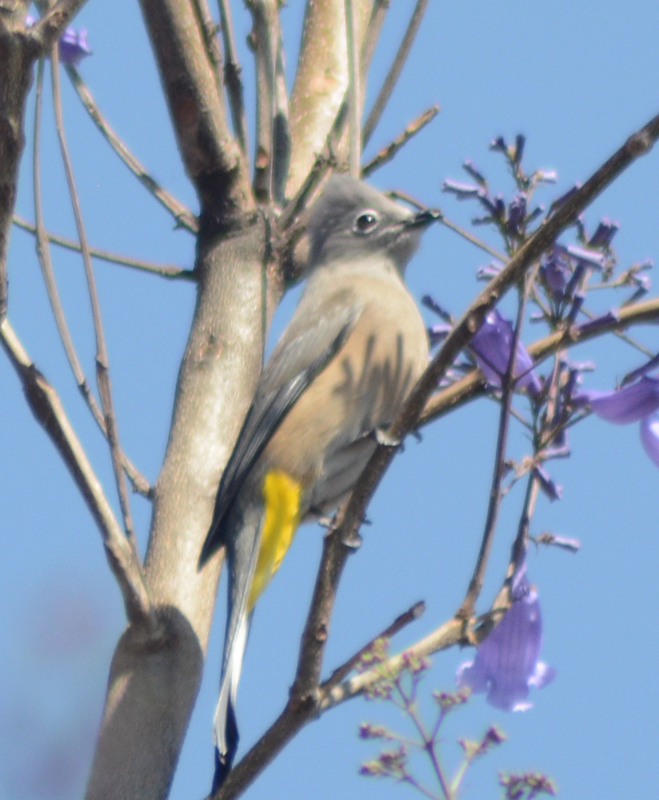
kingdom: Animalia
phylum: Chordata
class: Aves
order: Passeriformes
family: Ptilogonatidae
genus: Ptilogonys
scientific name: Ptilogonys cinereus
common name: Gray silky-flycatcher
